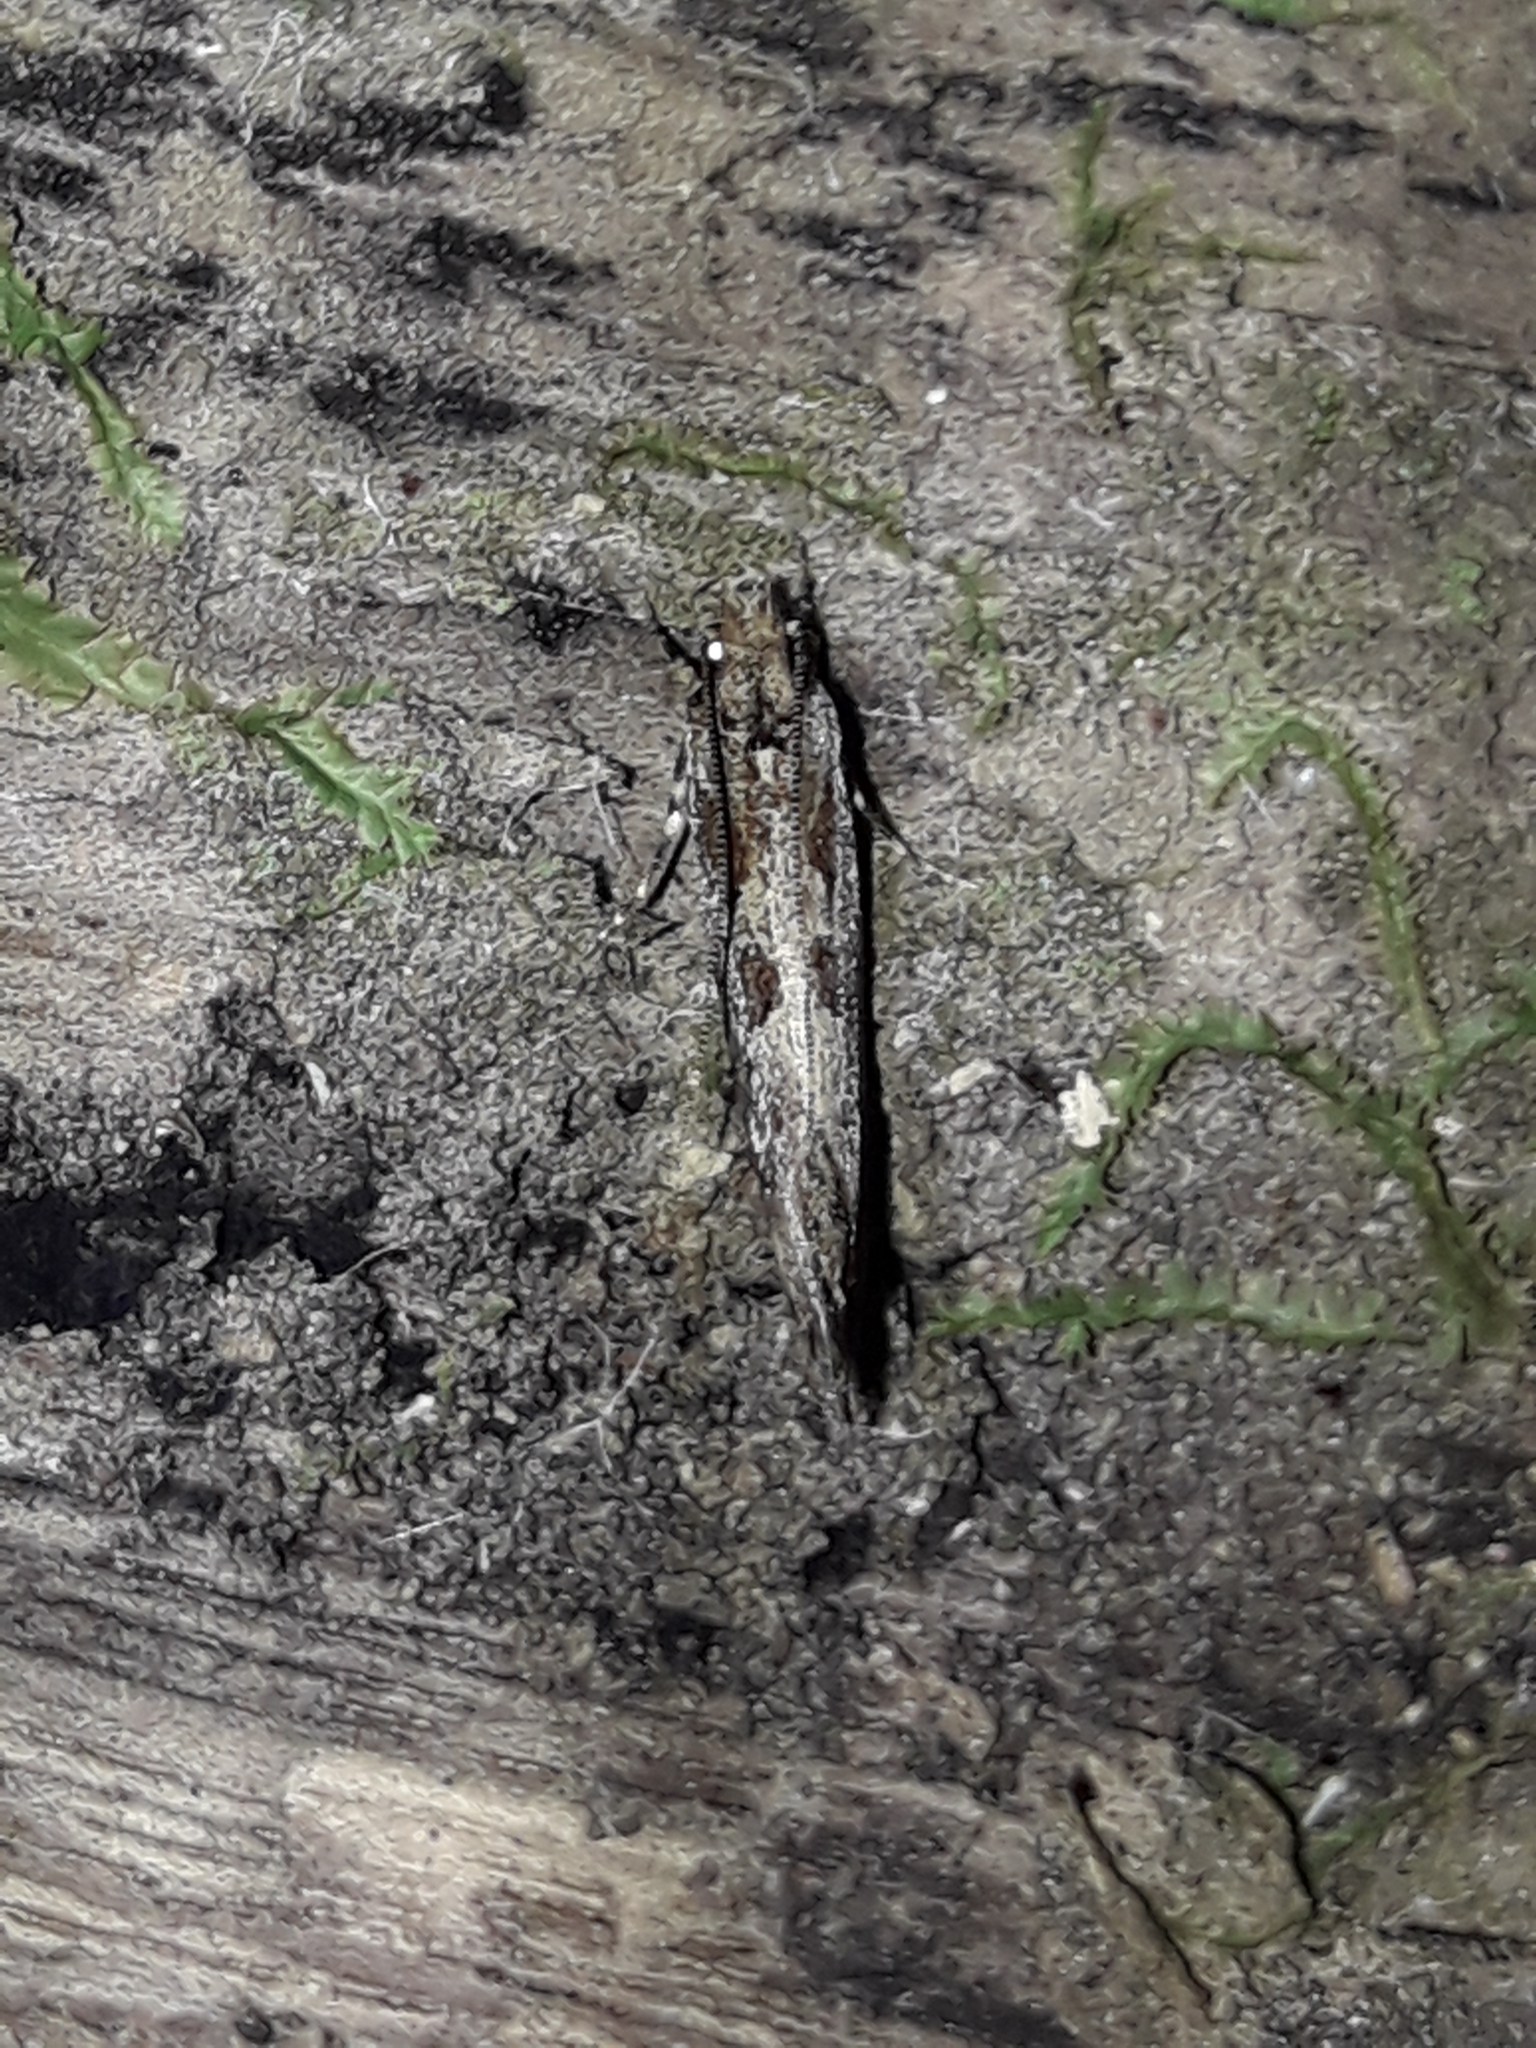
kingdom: Animalia
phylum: Arthropoda
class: Insecta
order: Lepidoptera
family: Tineidae
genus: Erechthias
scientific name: Erechthias capnitis
